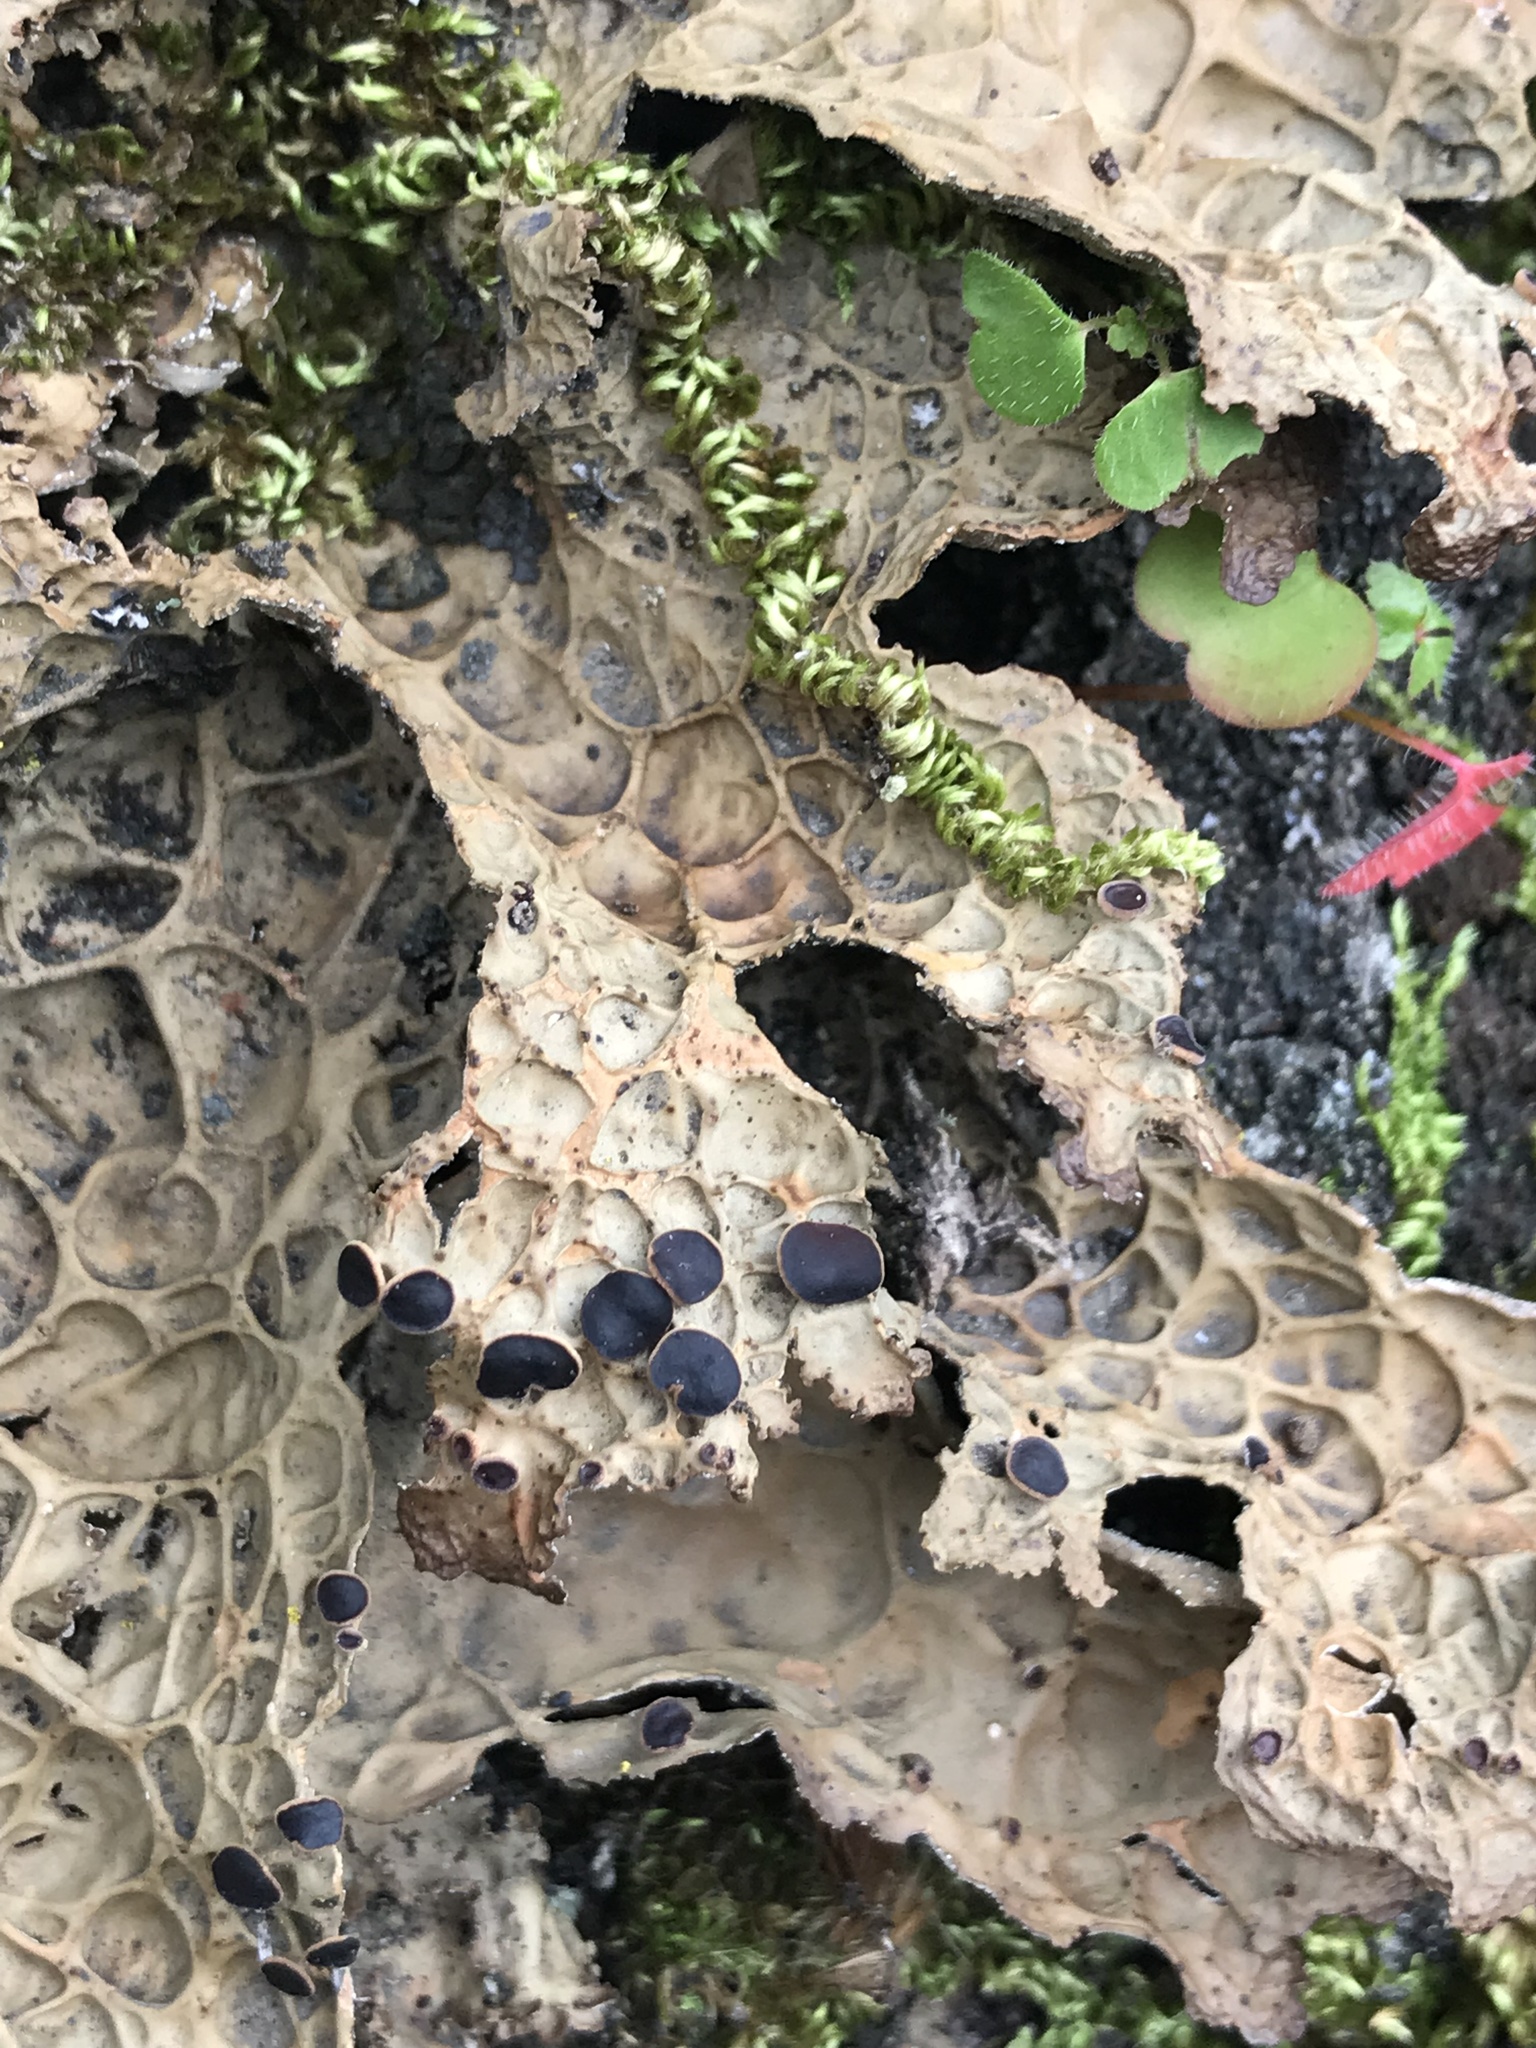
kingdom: Fungi
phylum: Ascomycota
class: Lecanoromycetes
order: Peltigerales
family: Lobariaceae
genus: Lobaria
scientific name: Lobaria anthraspis
